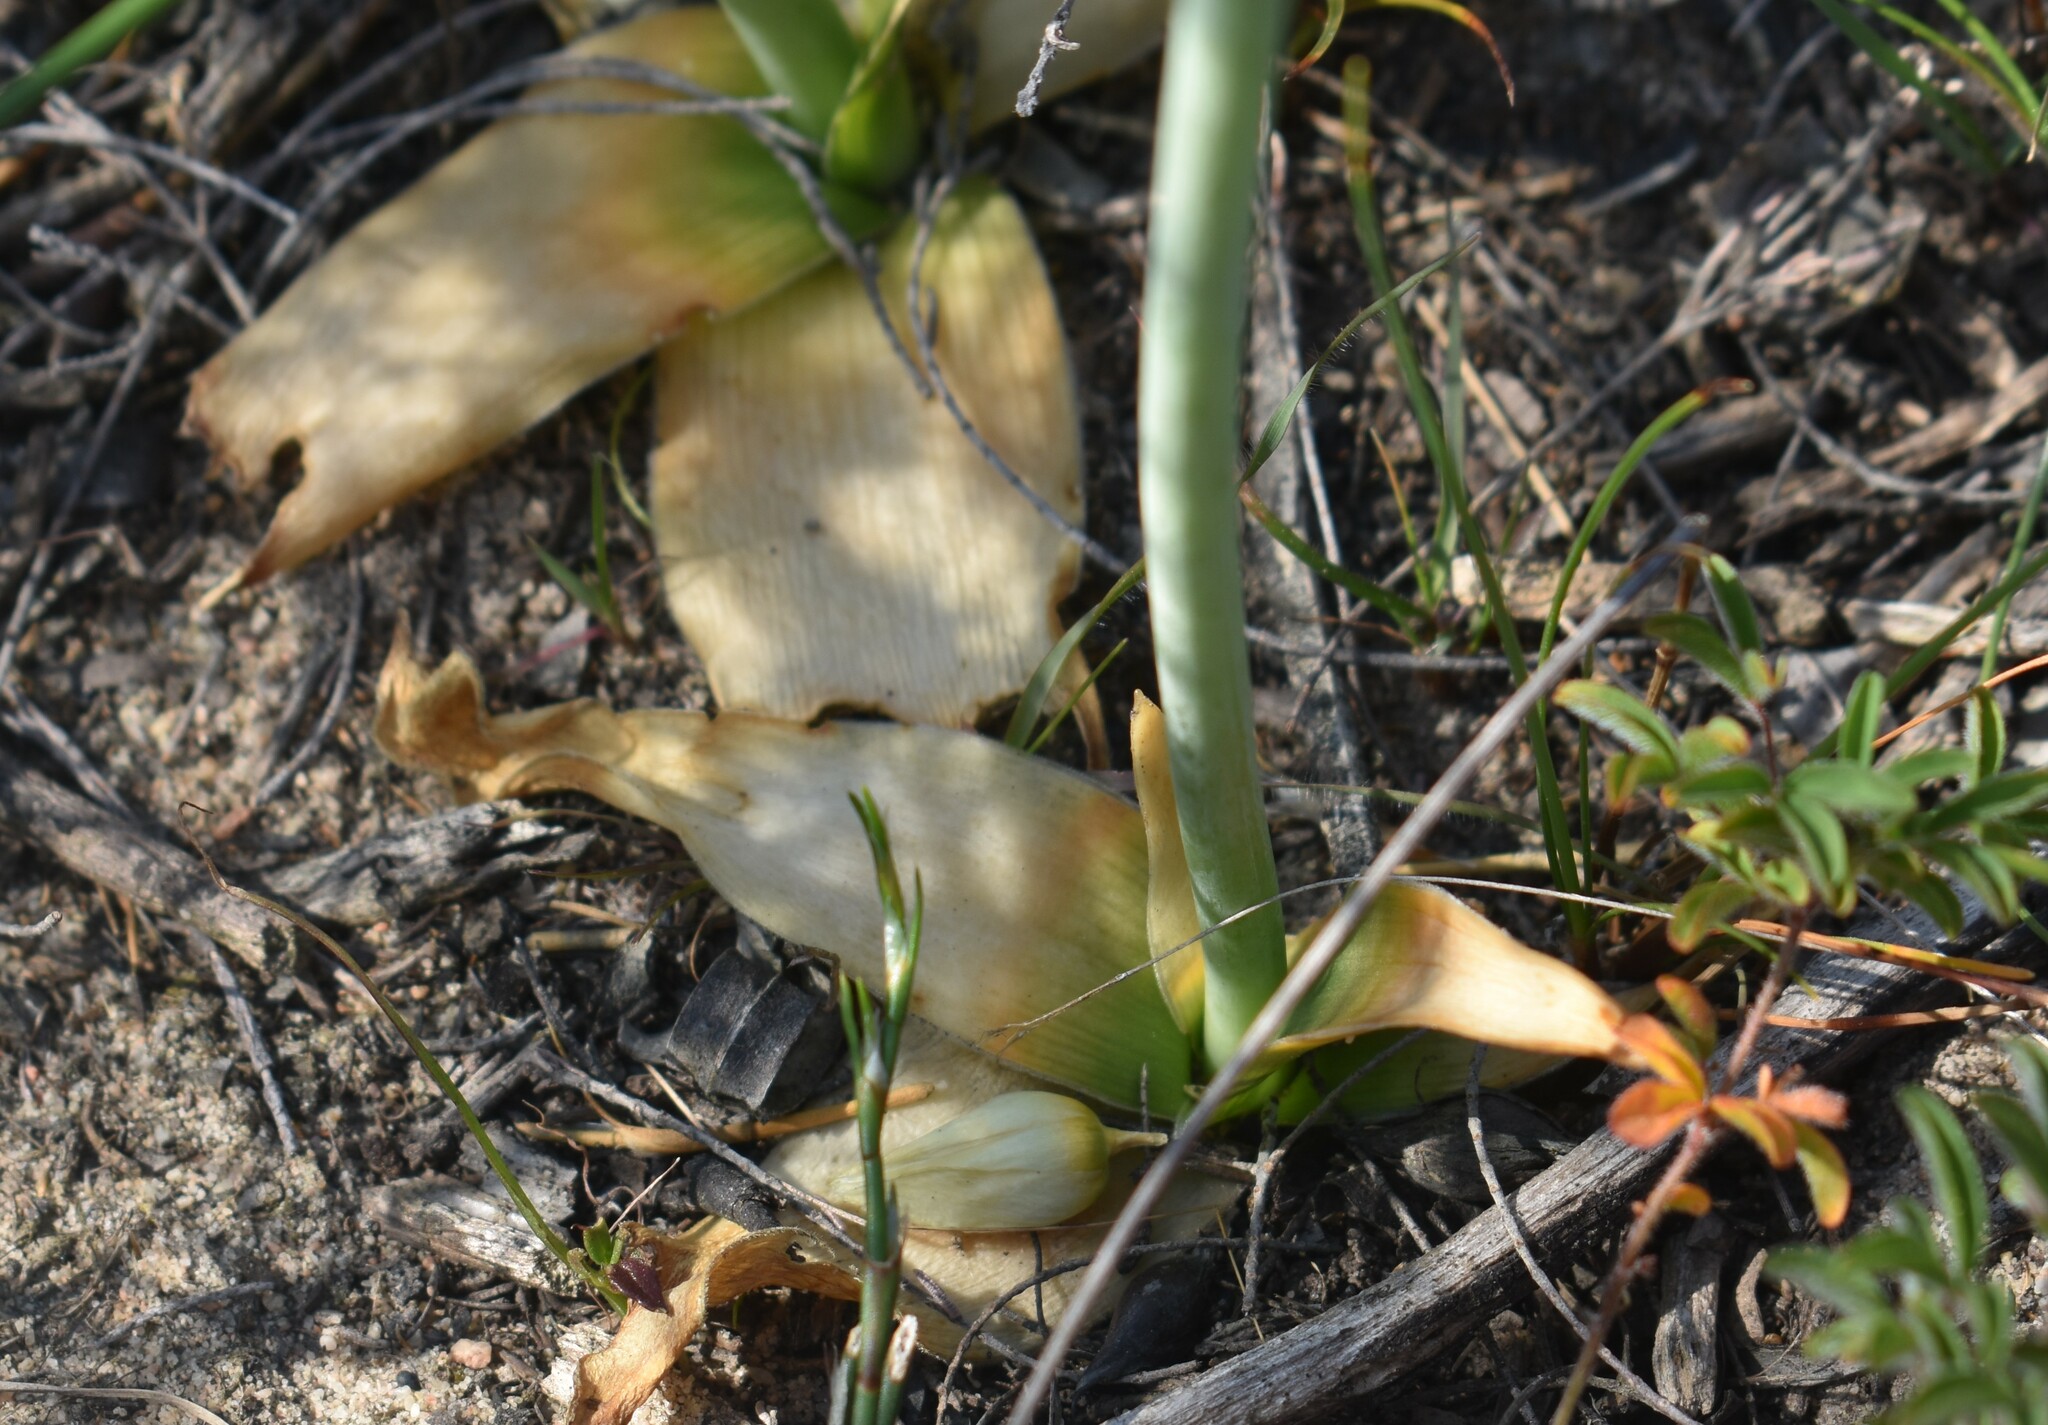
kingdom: Plantae
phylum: Tracheophyta
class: Liliopsida
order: Asparagales
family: Asparagaceae
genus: Ornithogalum
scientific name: Ornithogalum thyrsoides
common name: Chincherinchee
